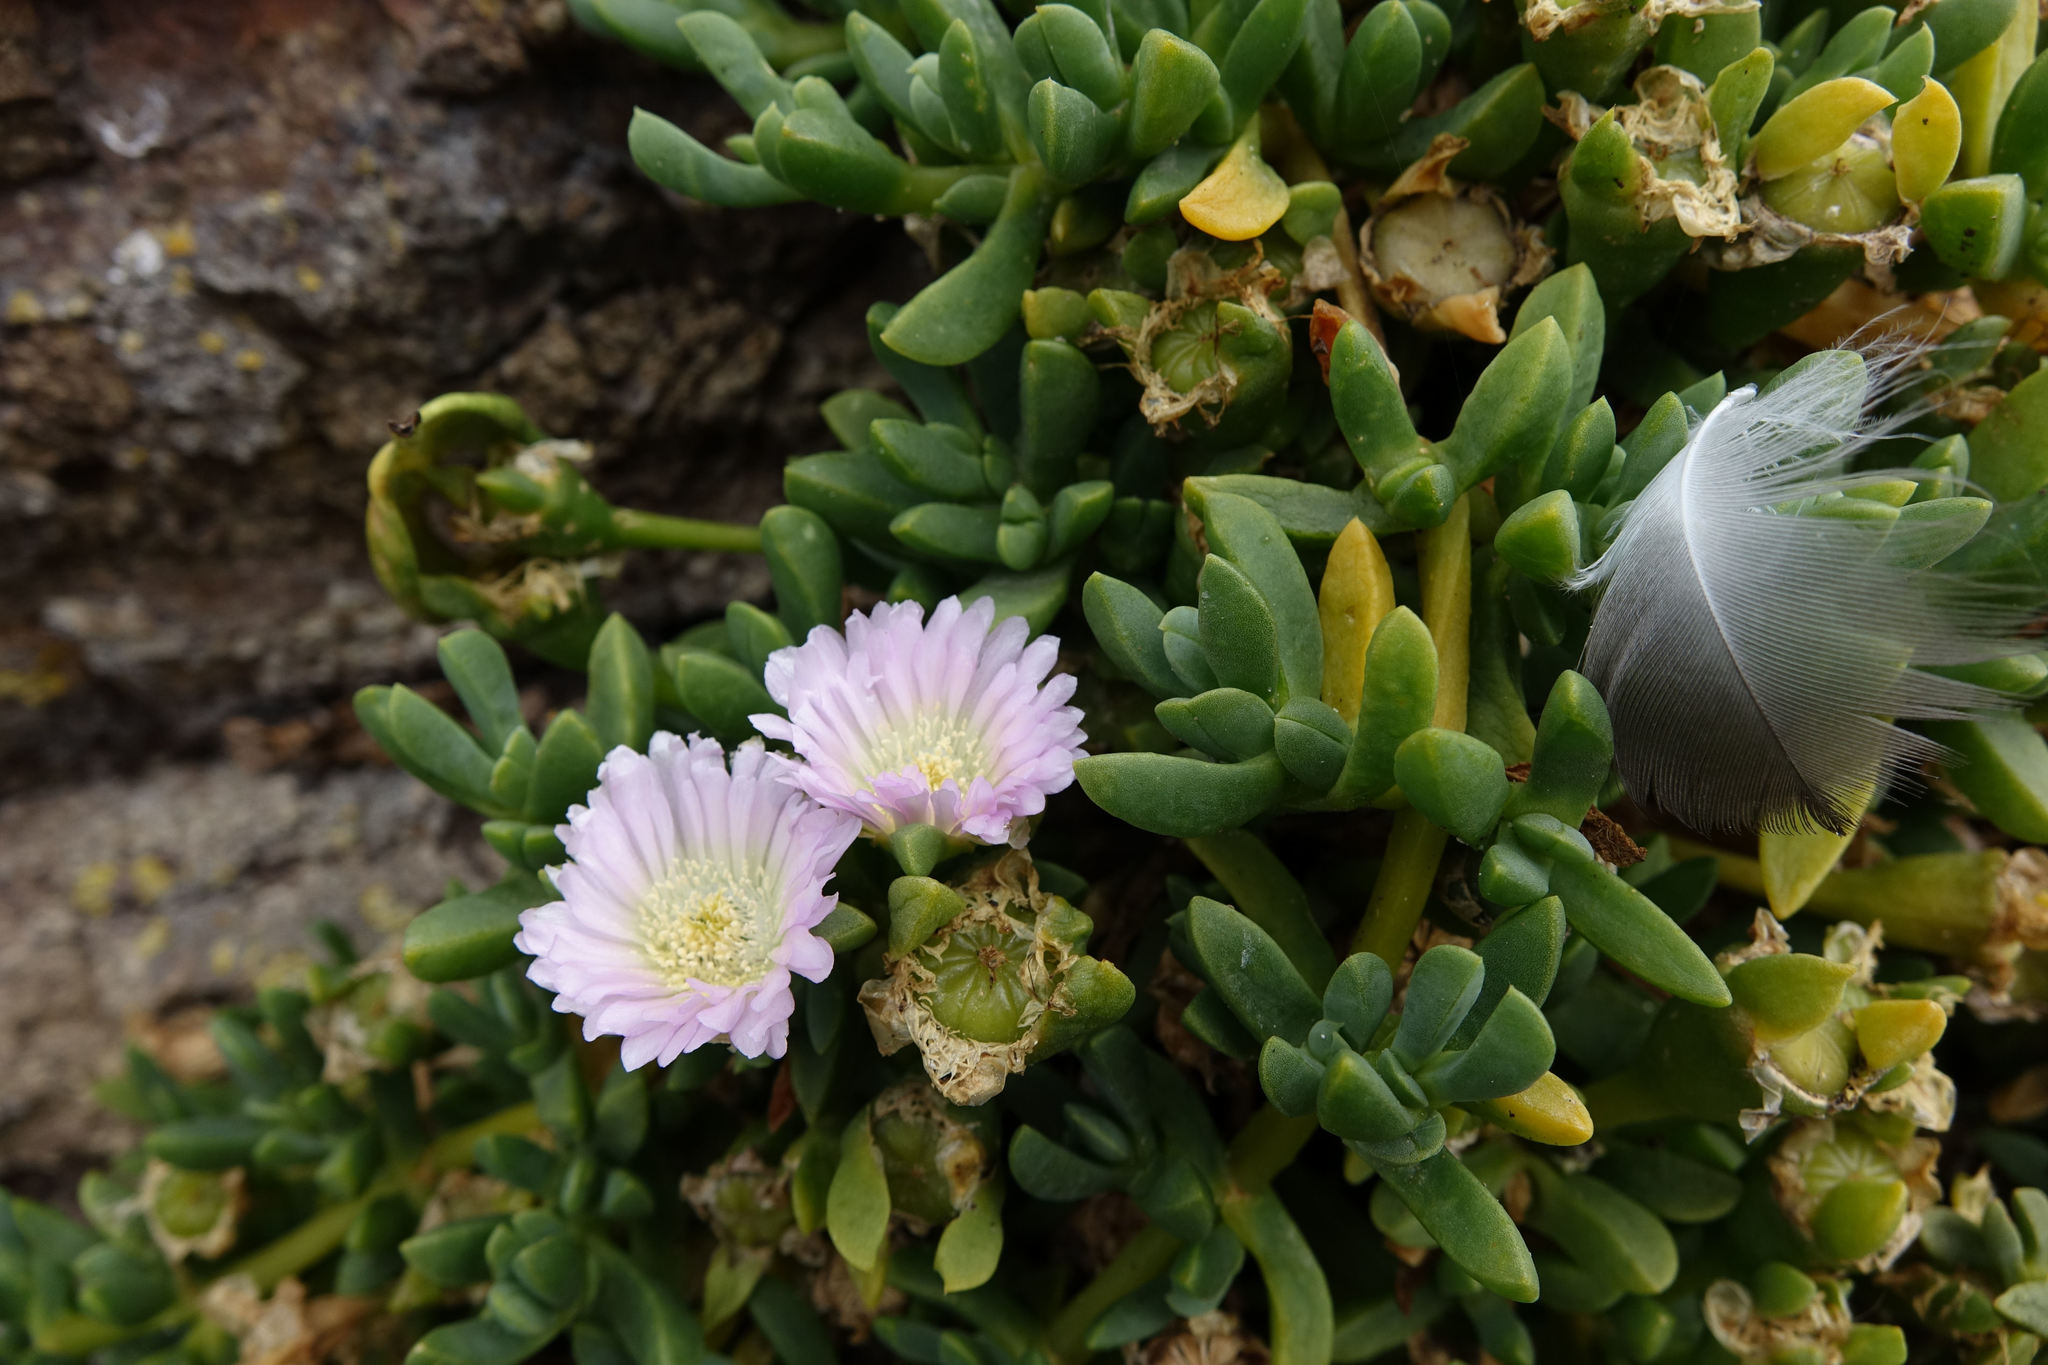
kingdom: Plantae
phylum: Tracheophyta
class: Magnoliopsida
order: Caryophyllales
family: Aizoaceae
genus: Disphyma
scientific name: Disphyma australe
